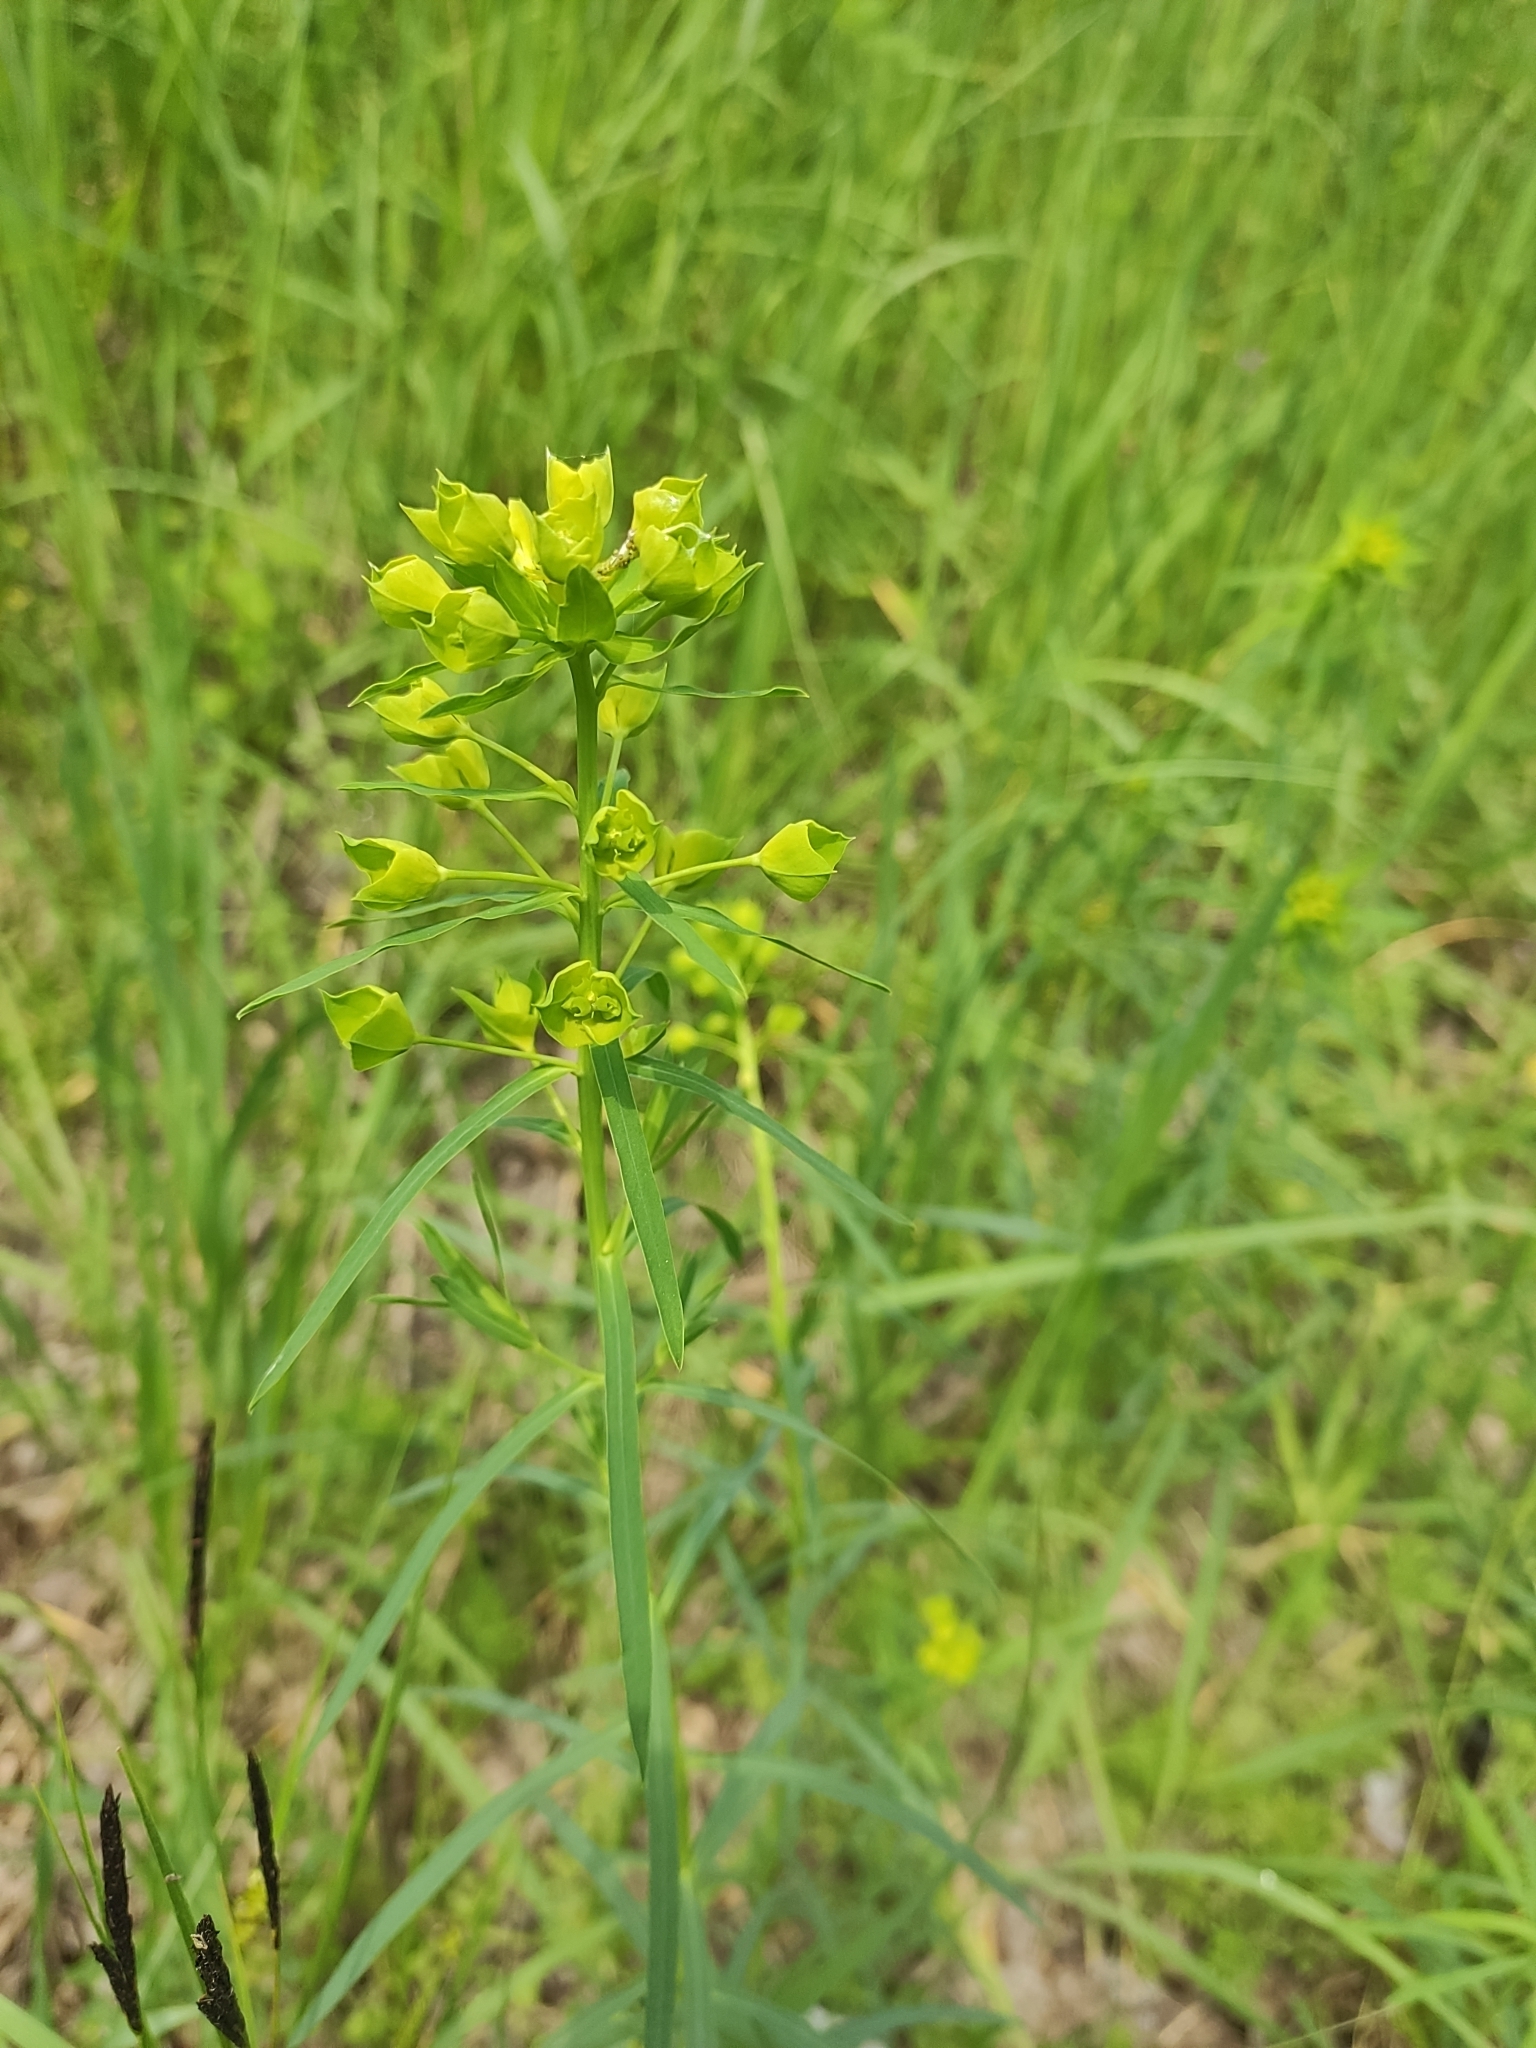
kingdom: Plantae
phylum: Tracheophyta
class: Magnoliopsida
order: Malpighiales
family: Euphorbiaceae
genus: Euphorbia
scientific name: Euphorbia virgata
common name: Leafy spurge
